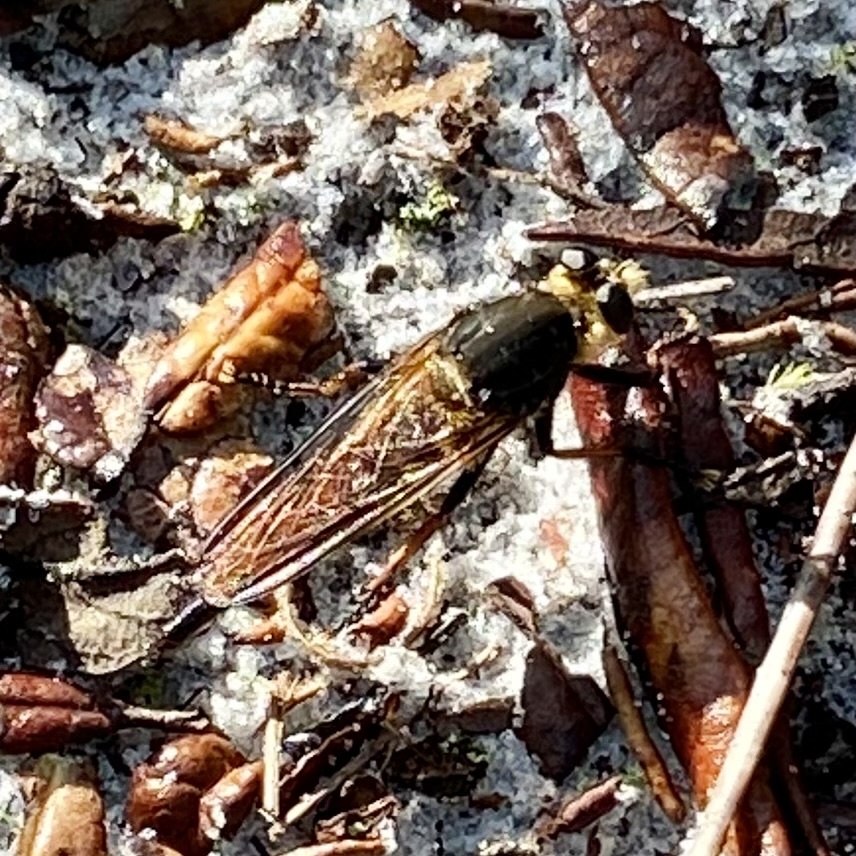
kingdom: Animalia
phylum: Arthropoda
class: Insecta
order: Diptera
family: Asilidae
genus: Proctacanthus
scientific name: Proctacanthus fulviventris
